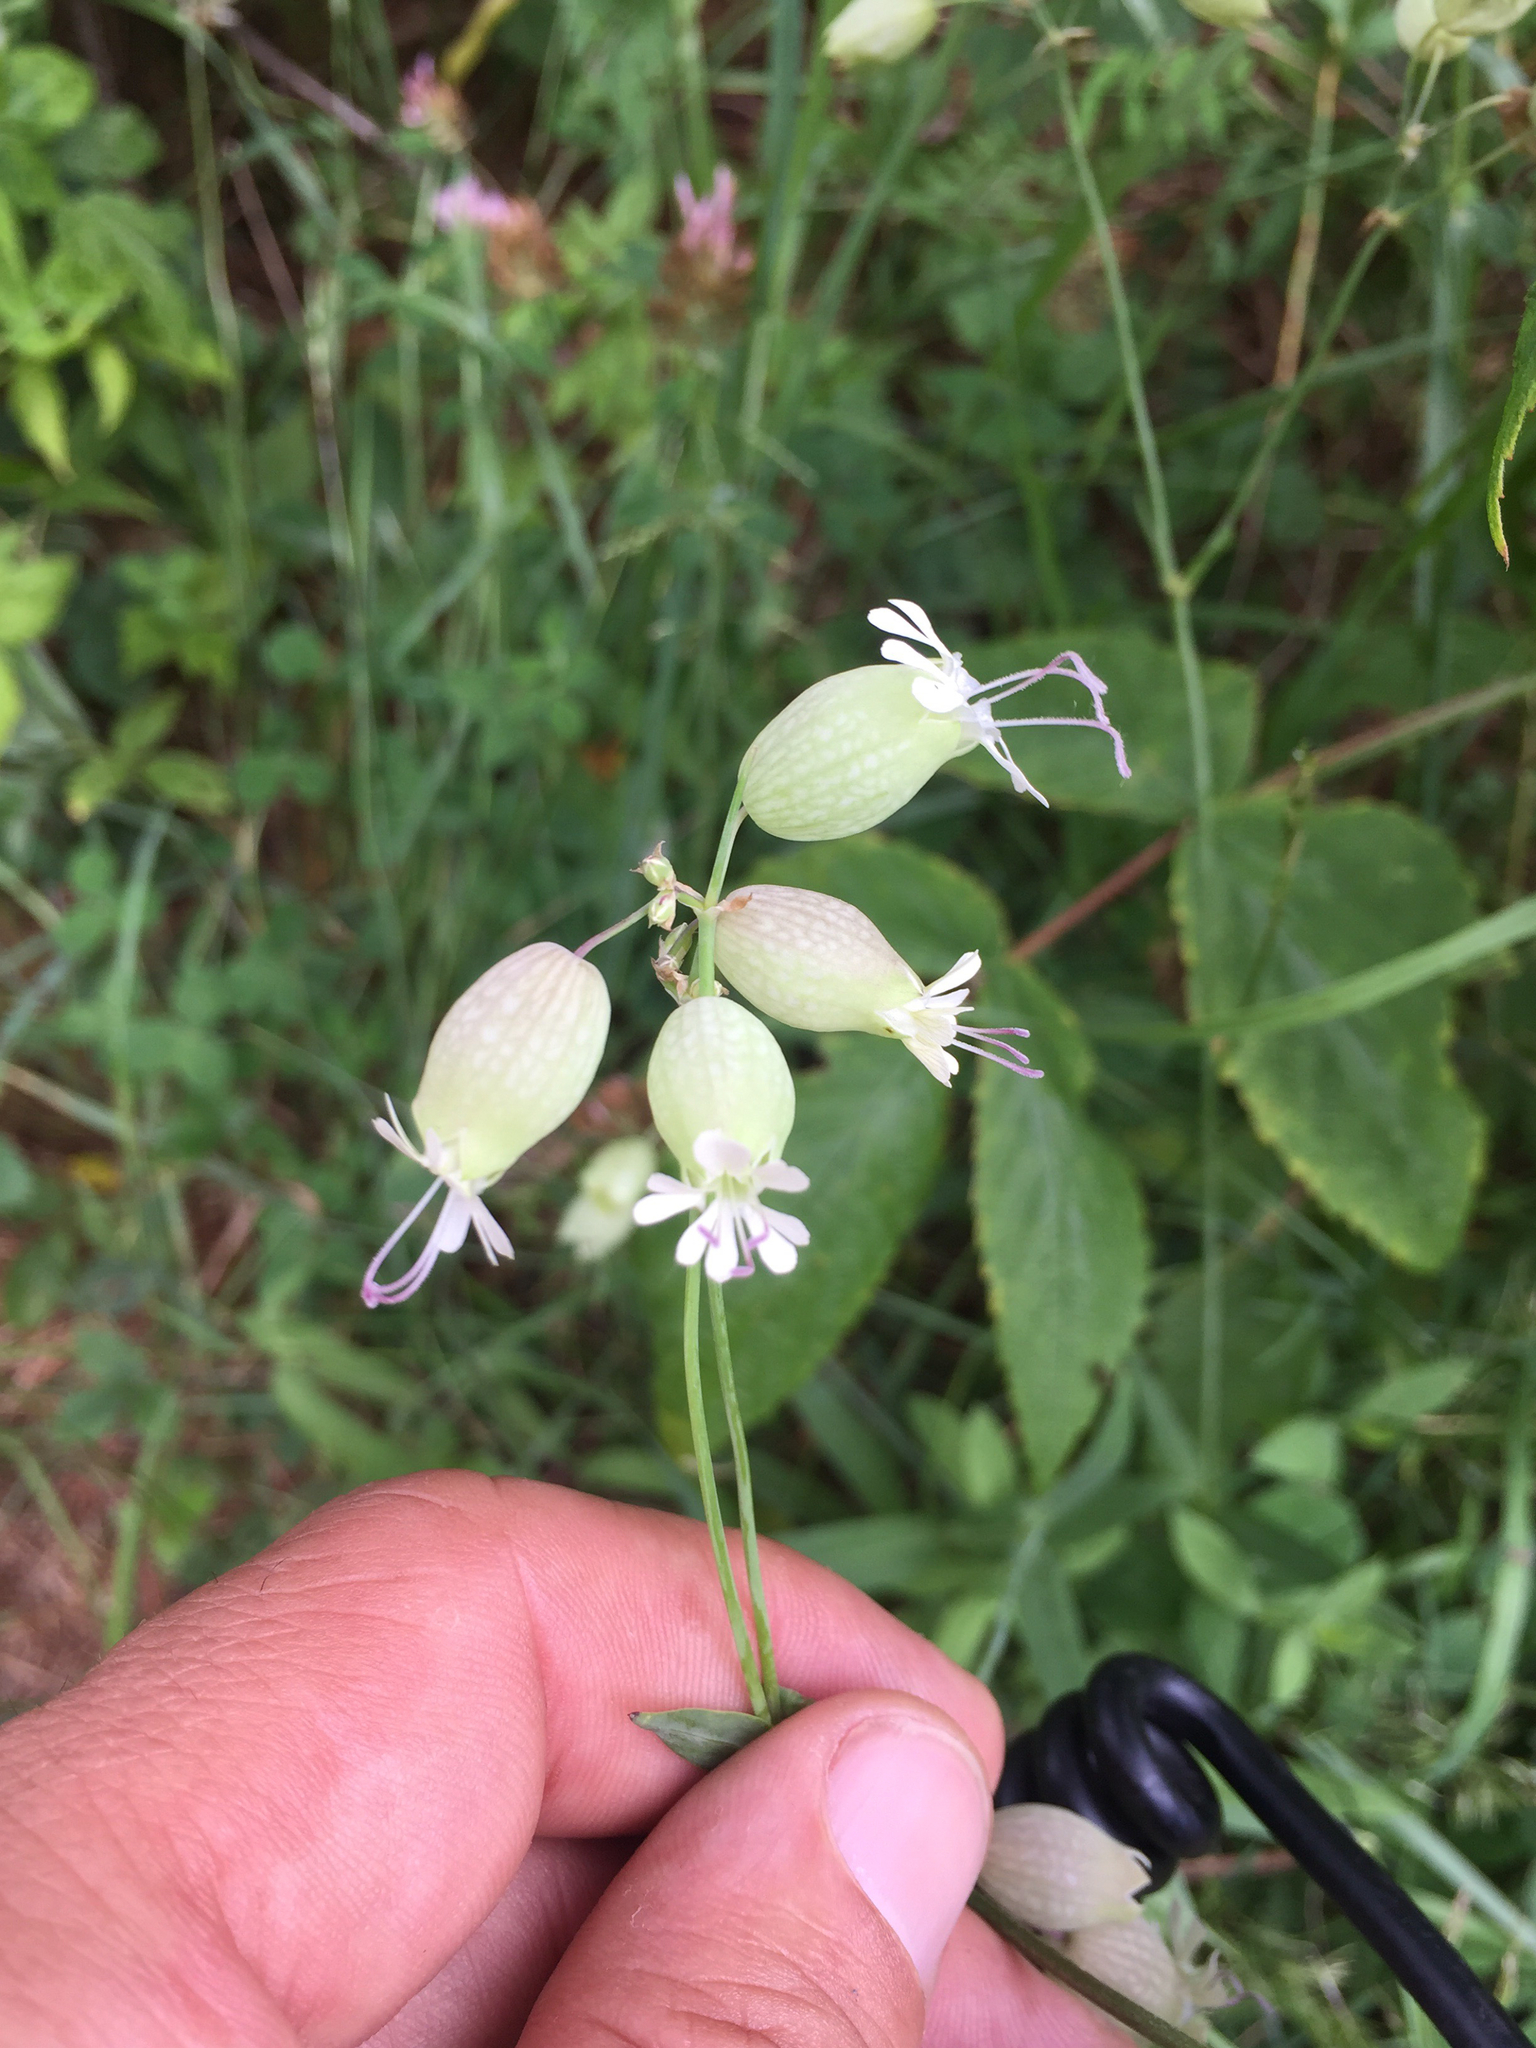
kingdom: Plantae
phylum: Tracheophyta
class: Magnoliopsida
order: Caryophyllales
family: Caryophyllaceae
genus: Silene
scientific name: Silene vulgaris
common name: Bladder campion
